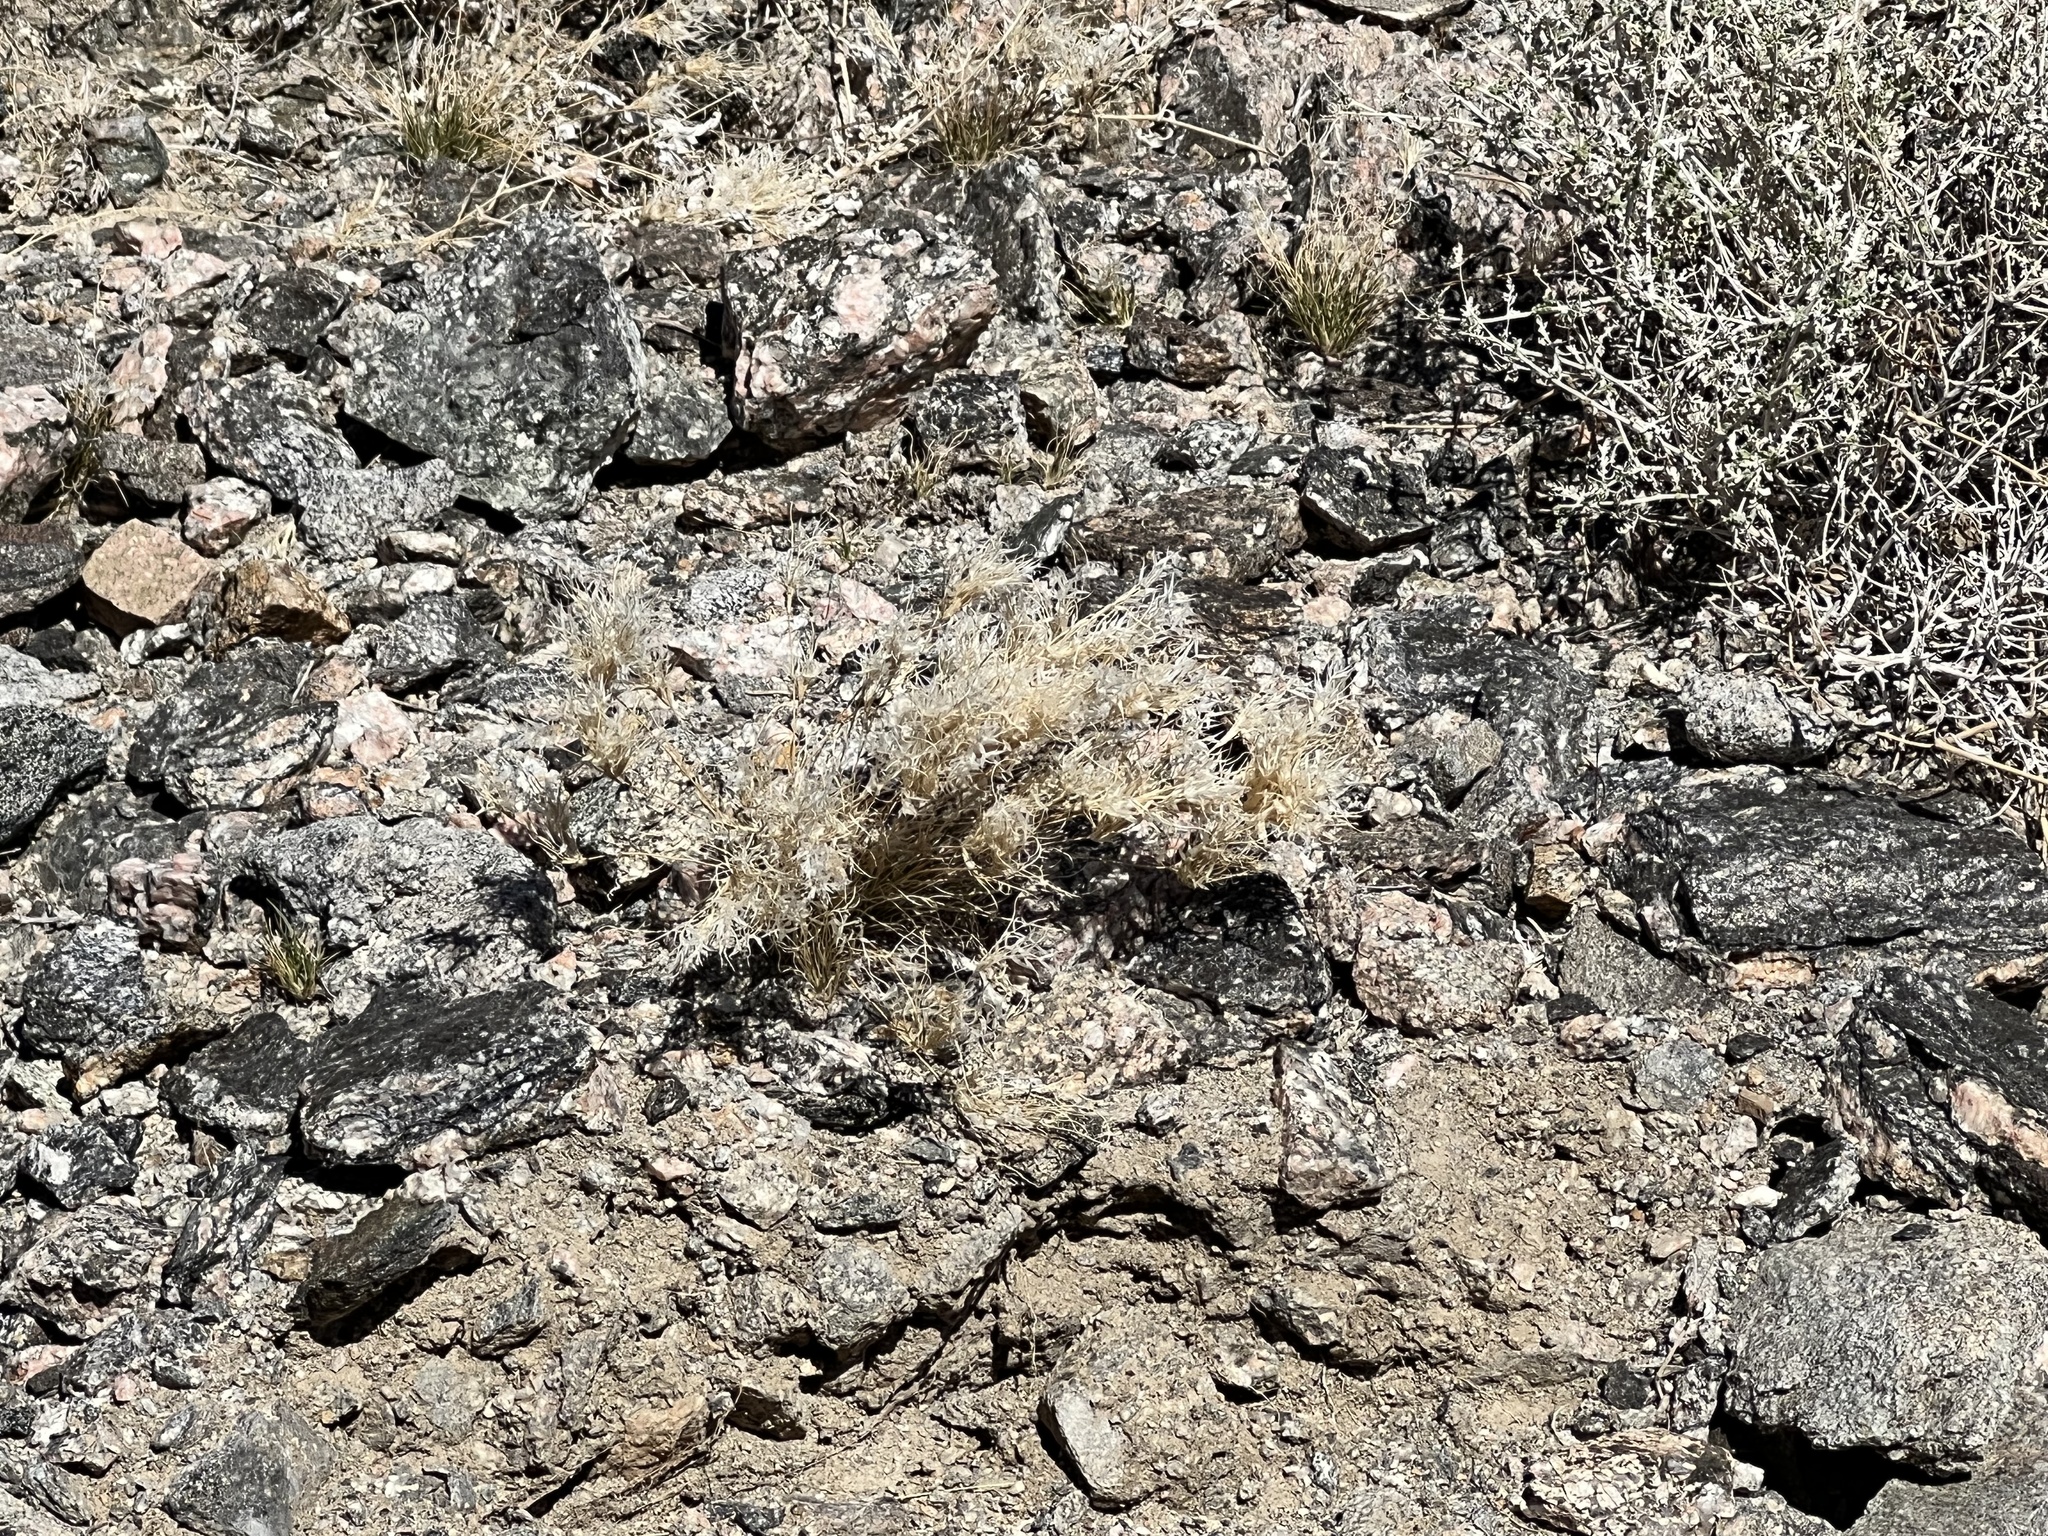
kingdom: Plantae
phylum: Tracheophyta
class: Liliopsida
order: Poales
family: Poaceae
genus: Dasyochloa
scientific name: Dasyochloa pulchella
